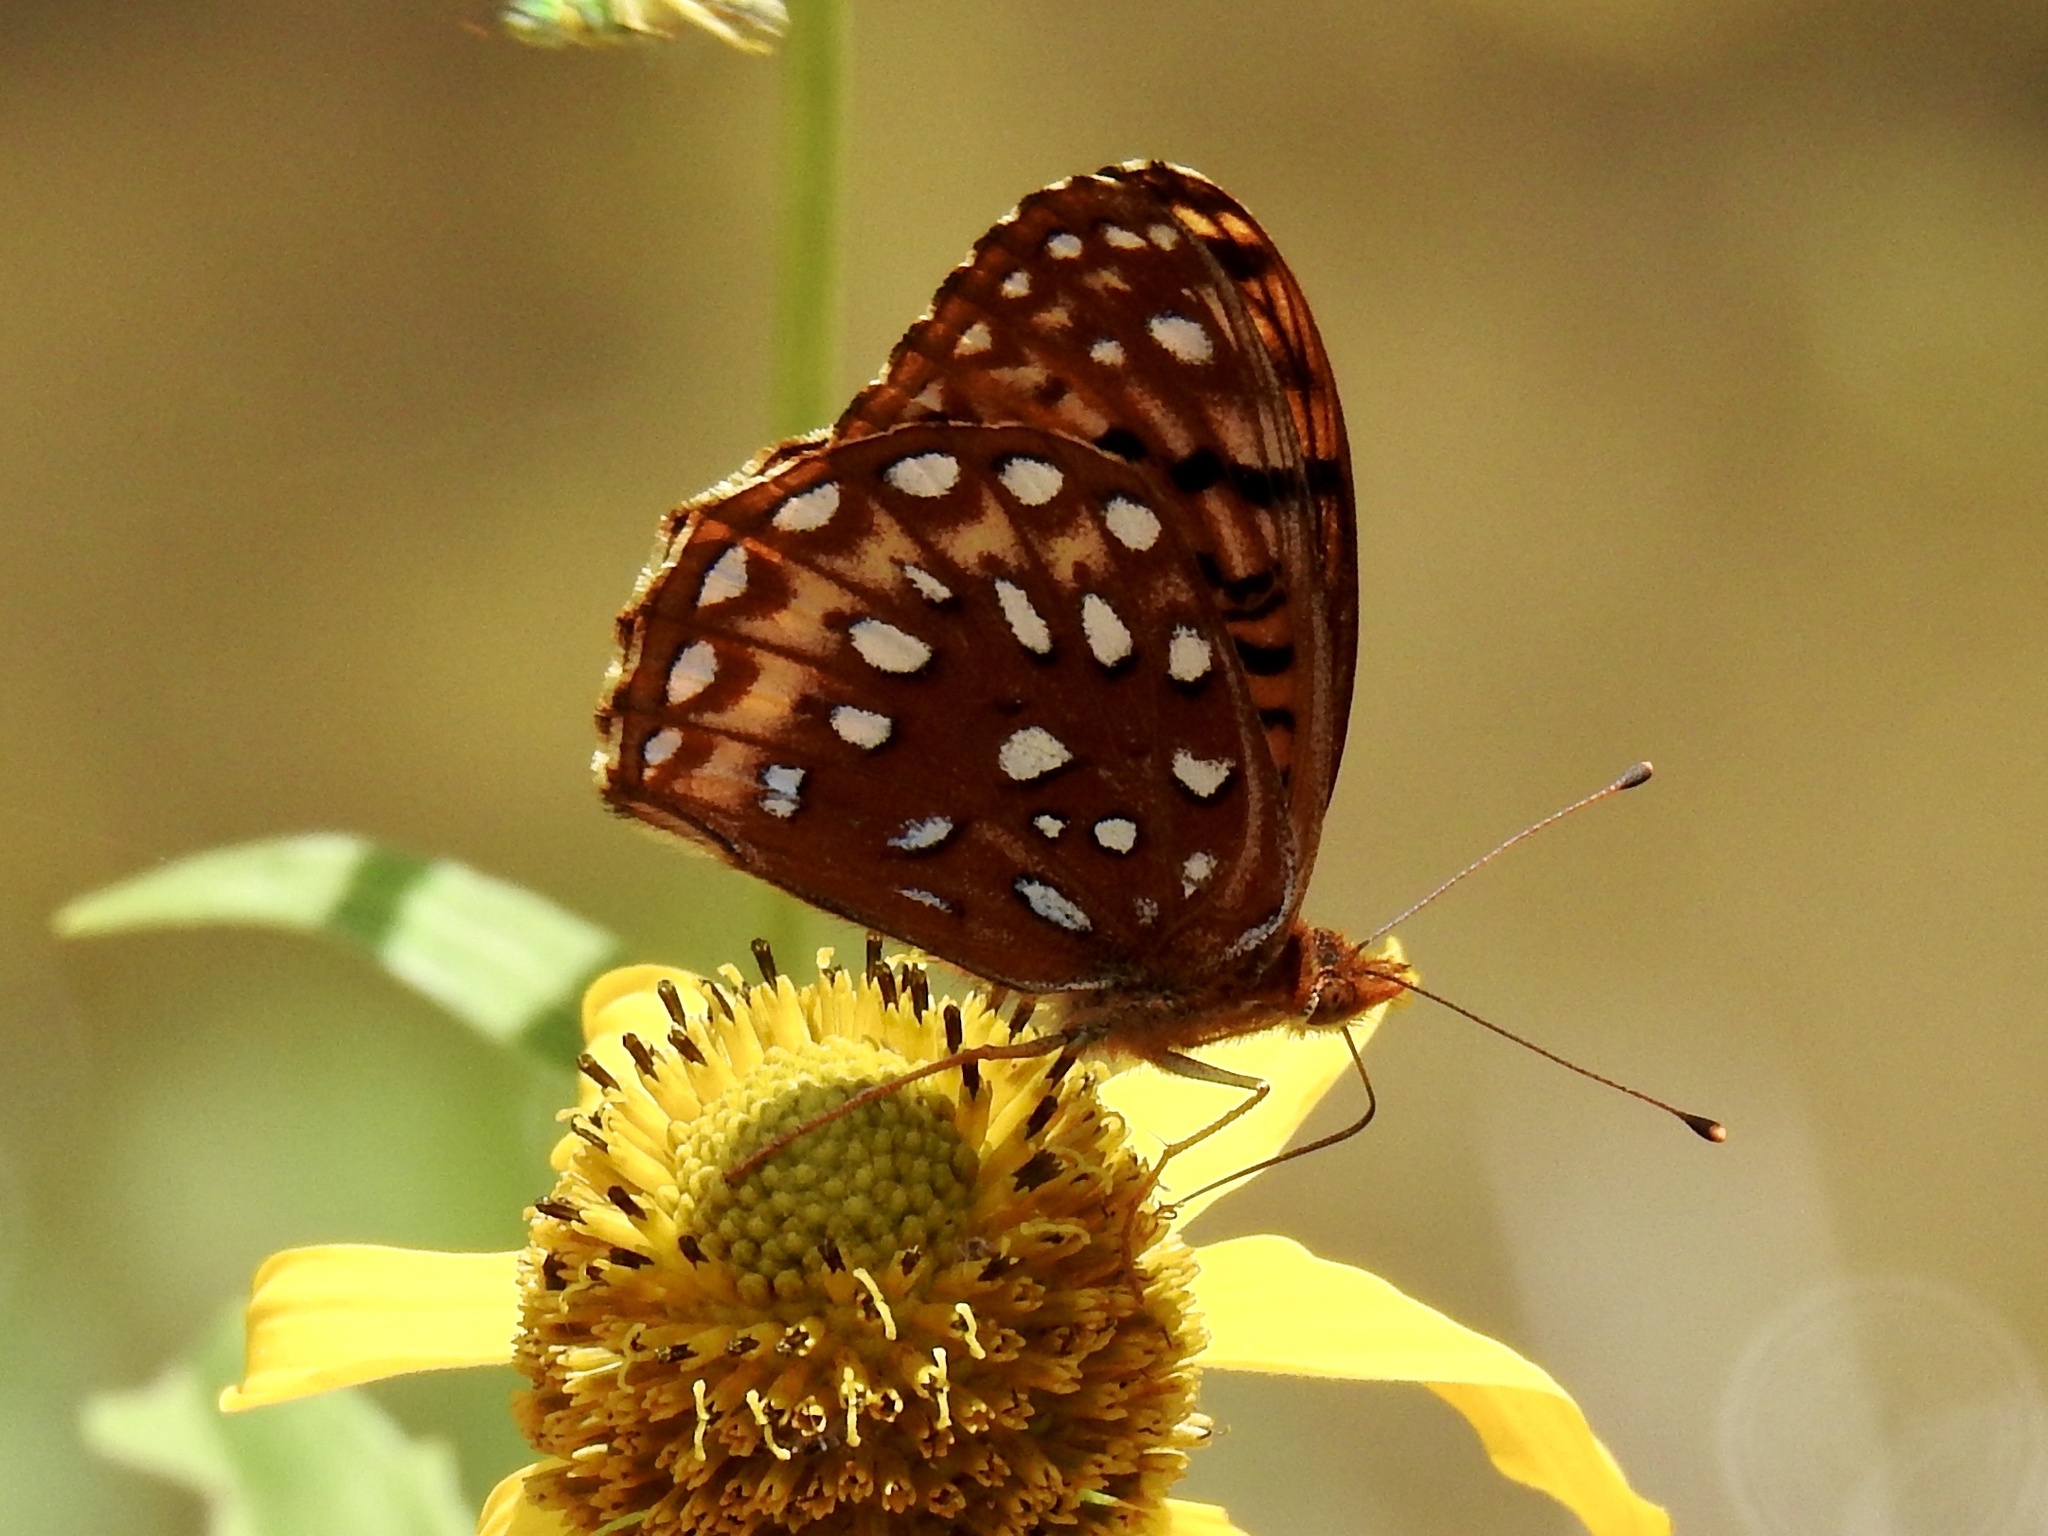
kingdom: Animalia
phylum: Arthropoda
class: Insecta
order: Lepidoptera
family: Nymphalidae
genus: Speyeria
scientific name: Speyeria atlantis
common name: Atlantis fritillary
